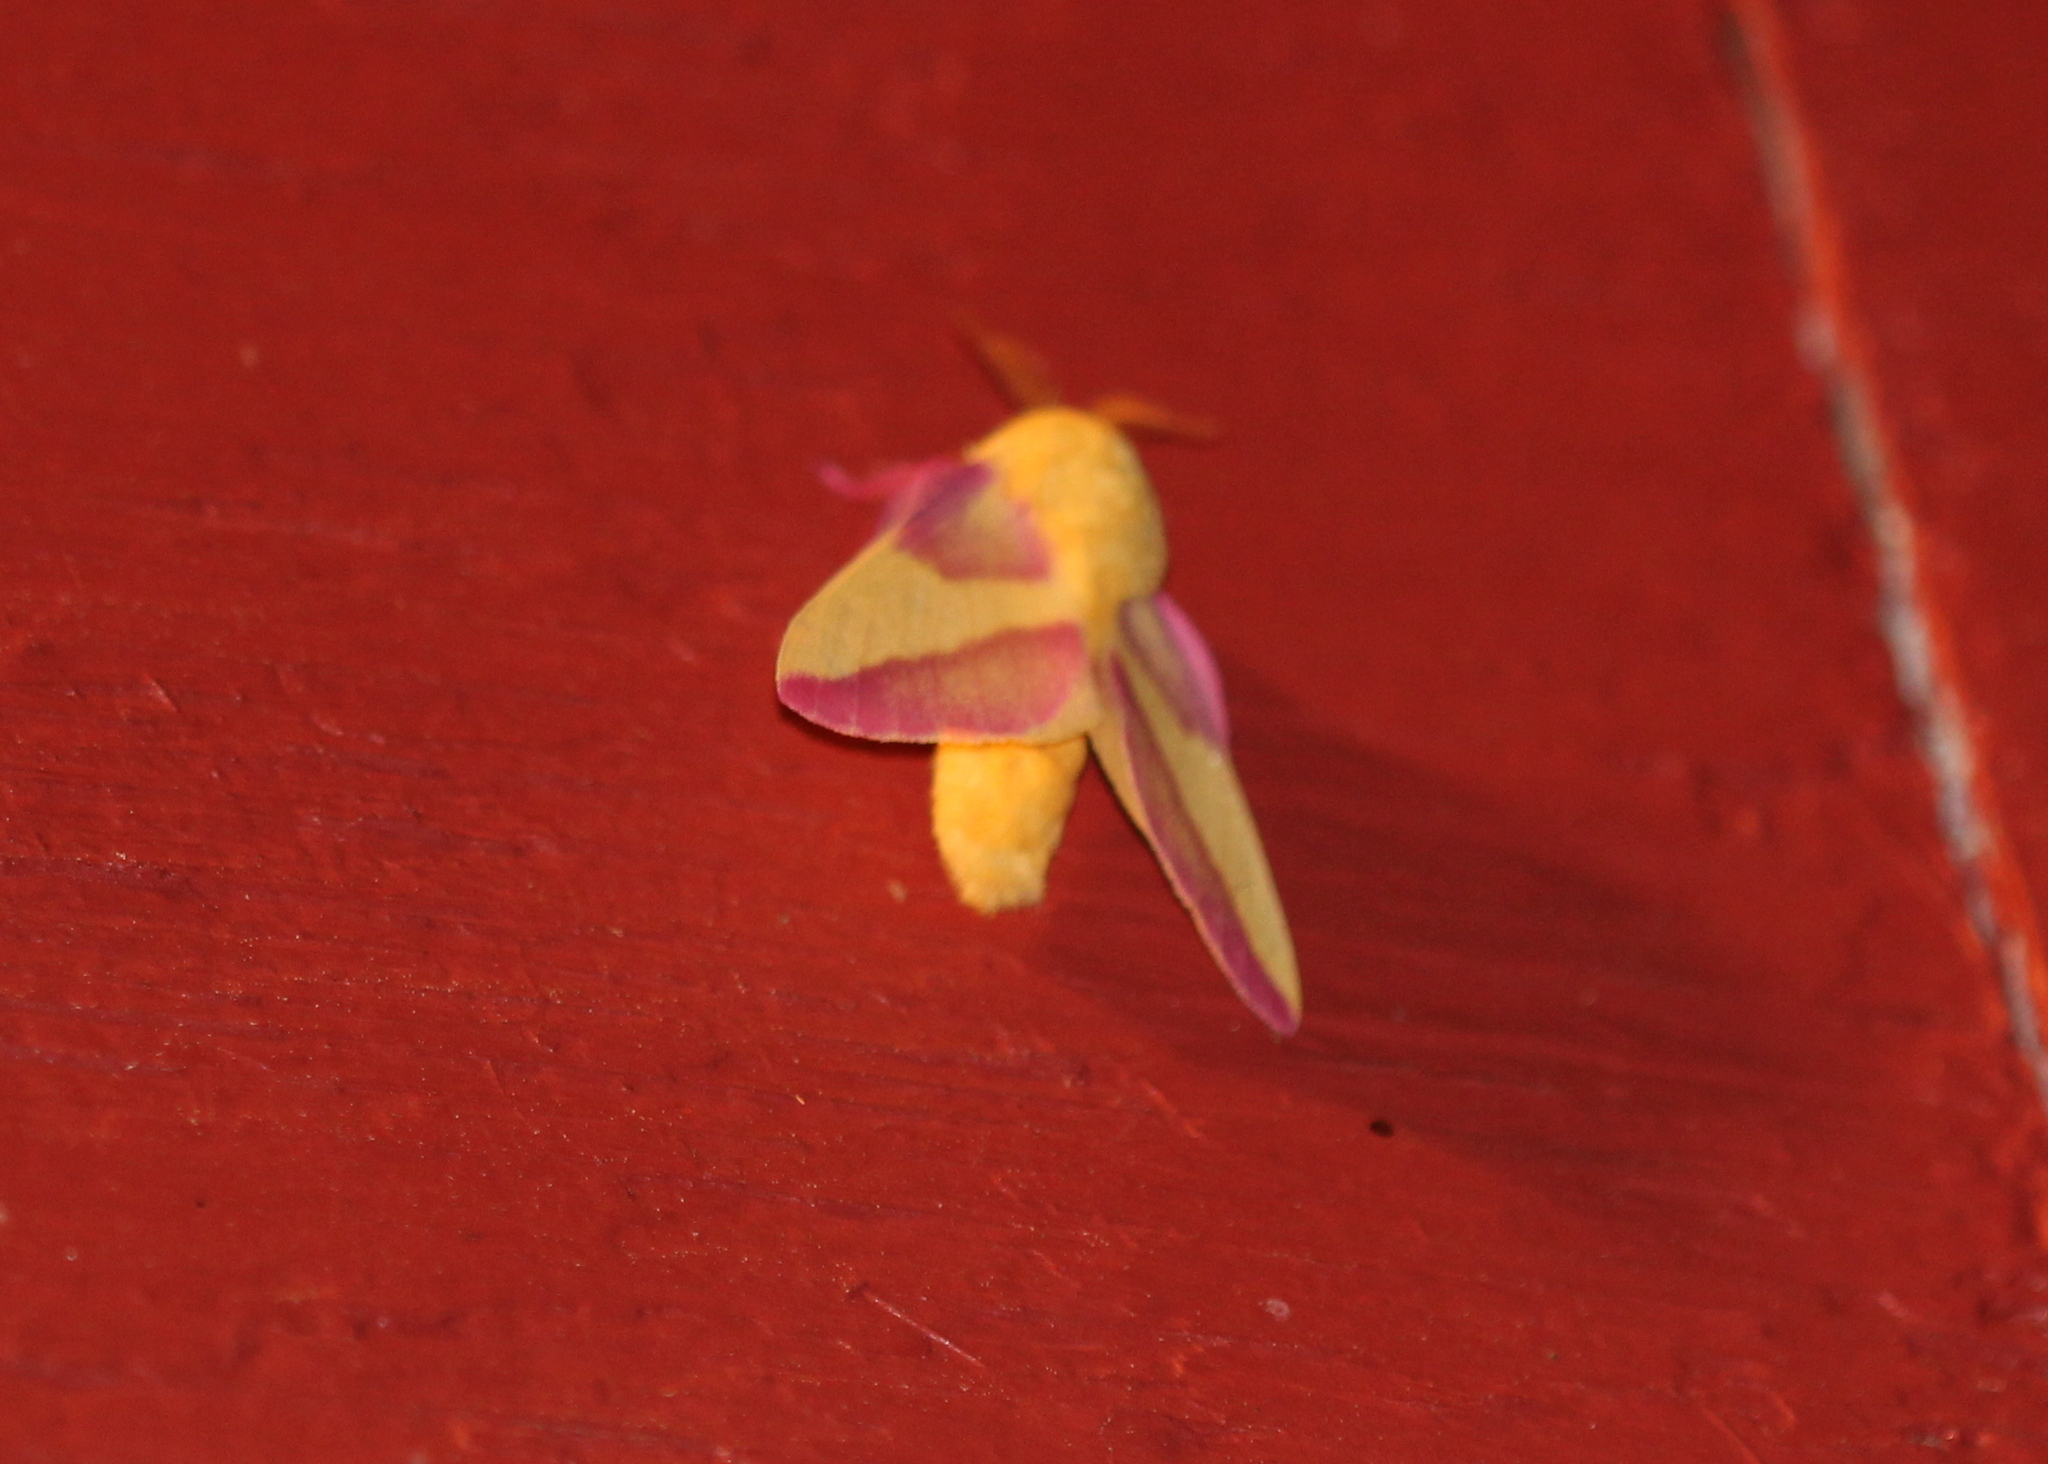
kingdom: Animalia
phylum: Arthropoda
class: Insecta
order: Lepidoptera
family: Saturniidae
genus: Dryocampa
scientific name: Dryocampa rubicunda
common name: Rosy maple moth
